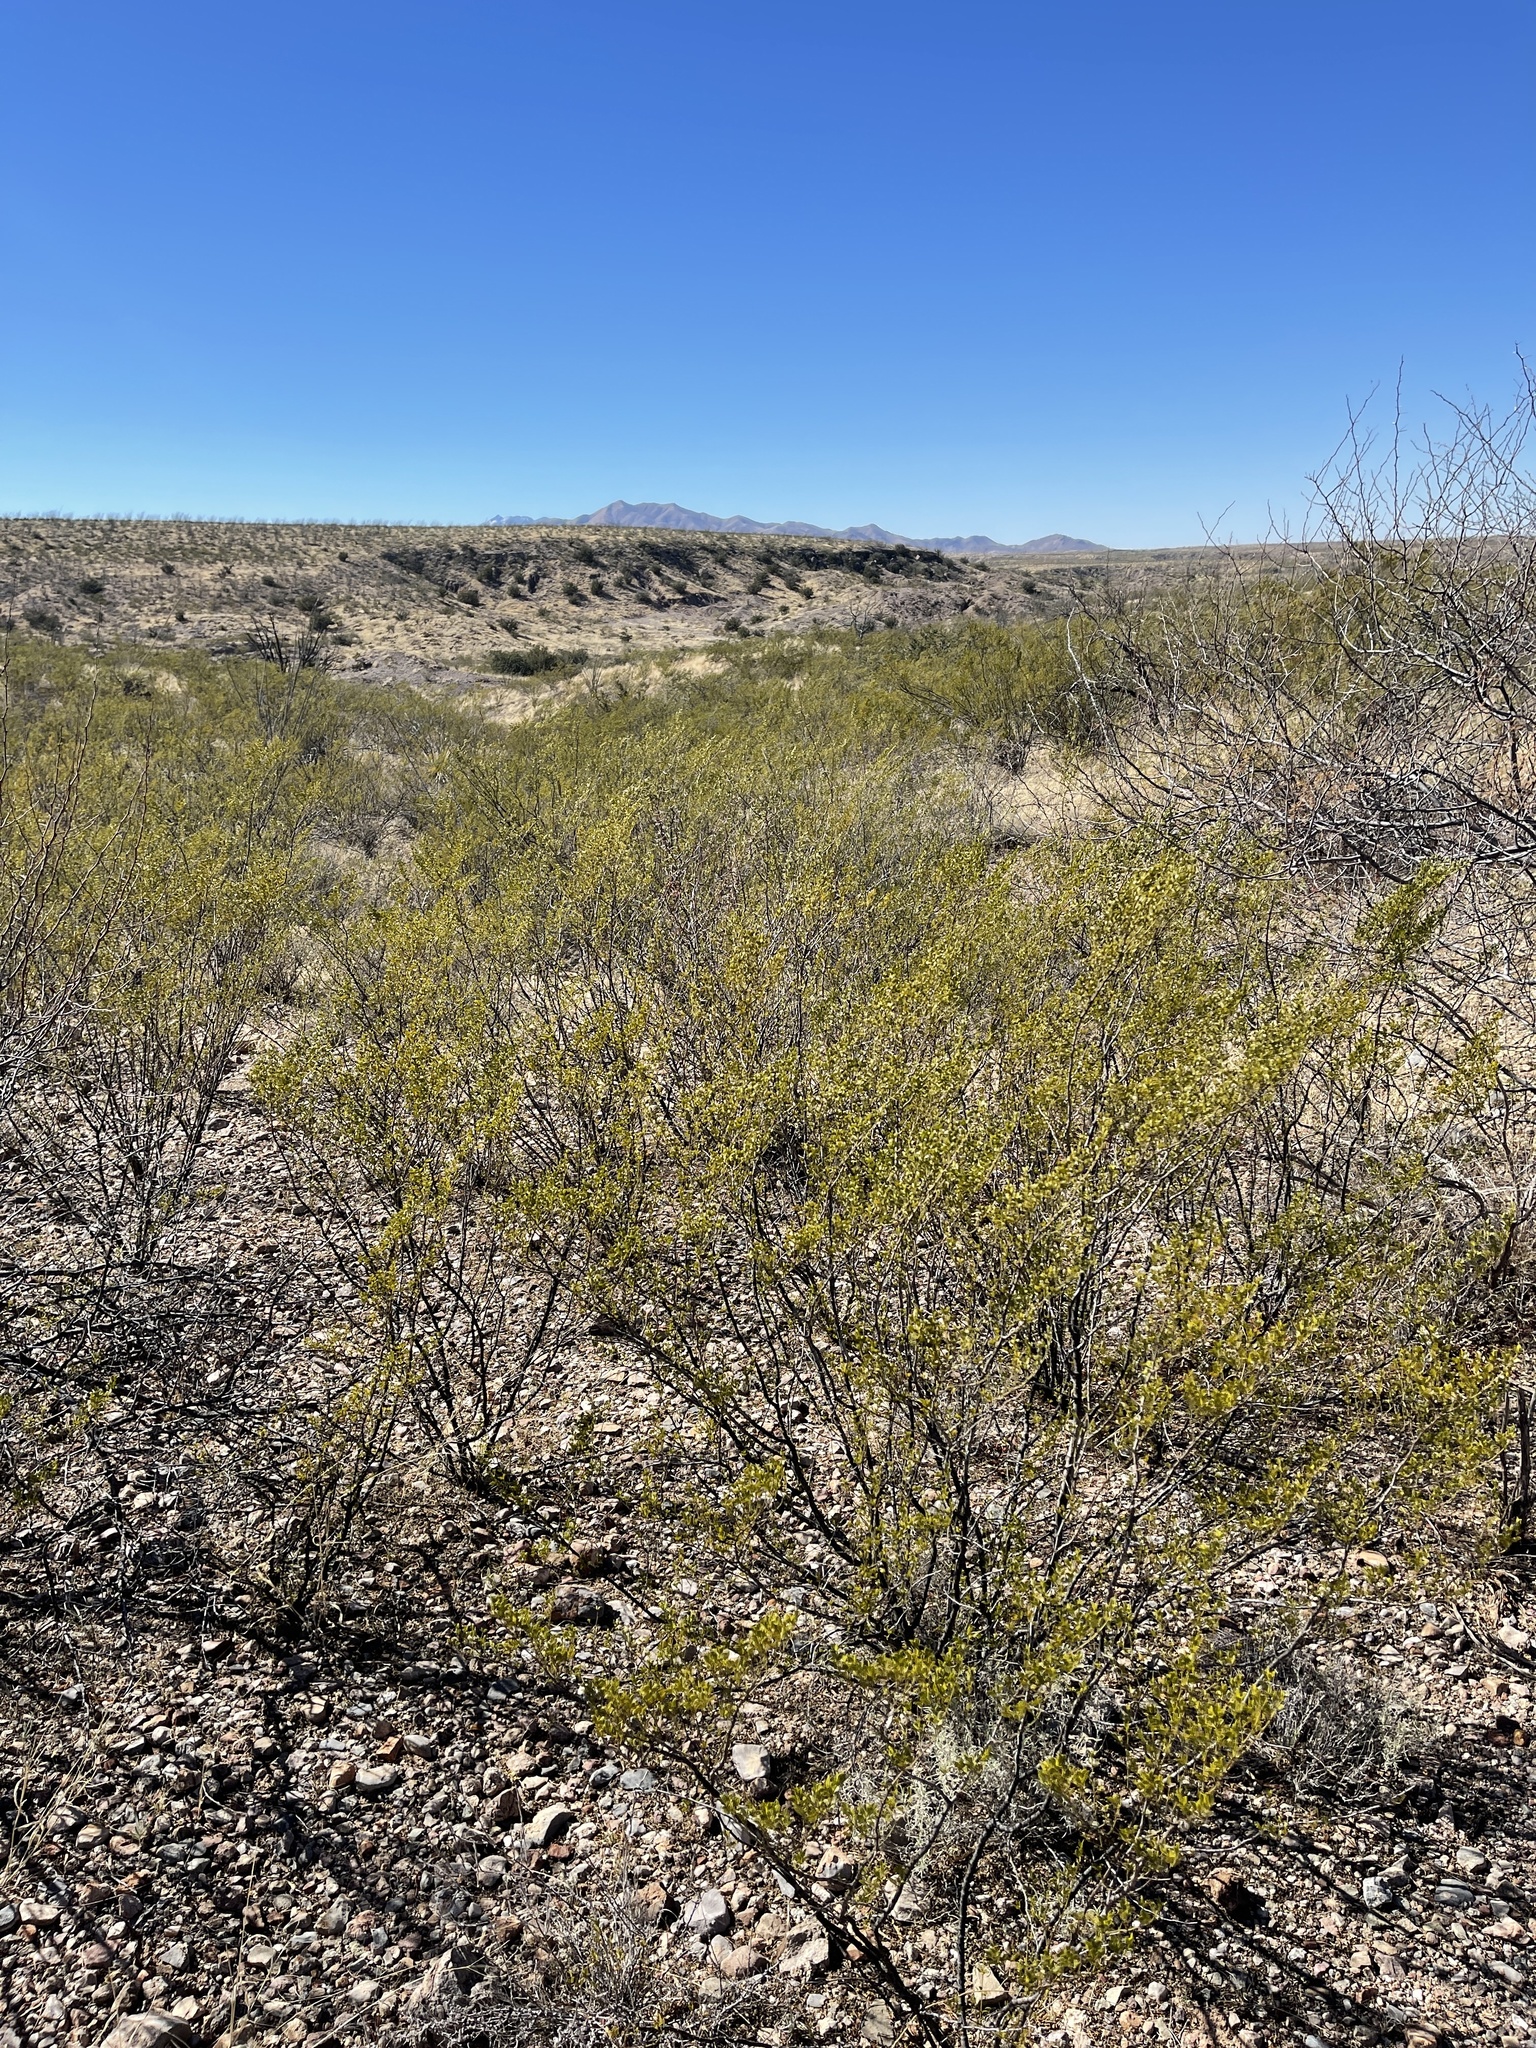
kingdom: Plantae
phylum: Tracheophyta
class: Magnoliopsida
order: Zygophyllales
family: Zygophyllaceae
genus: Larrea
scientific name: Larrea tridentata
